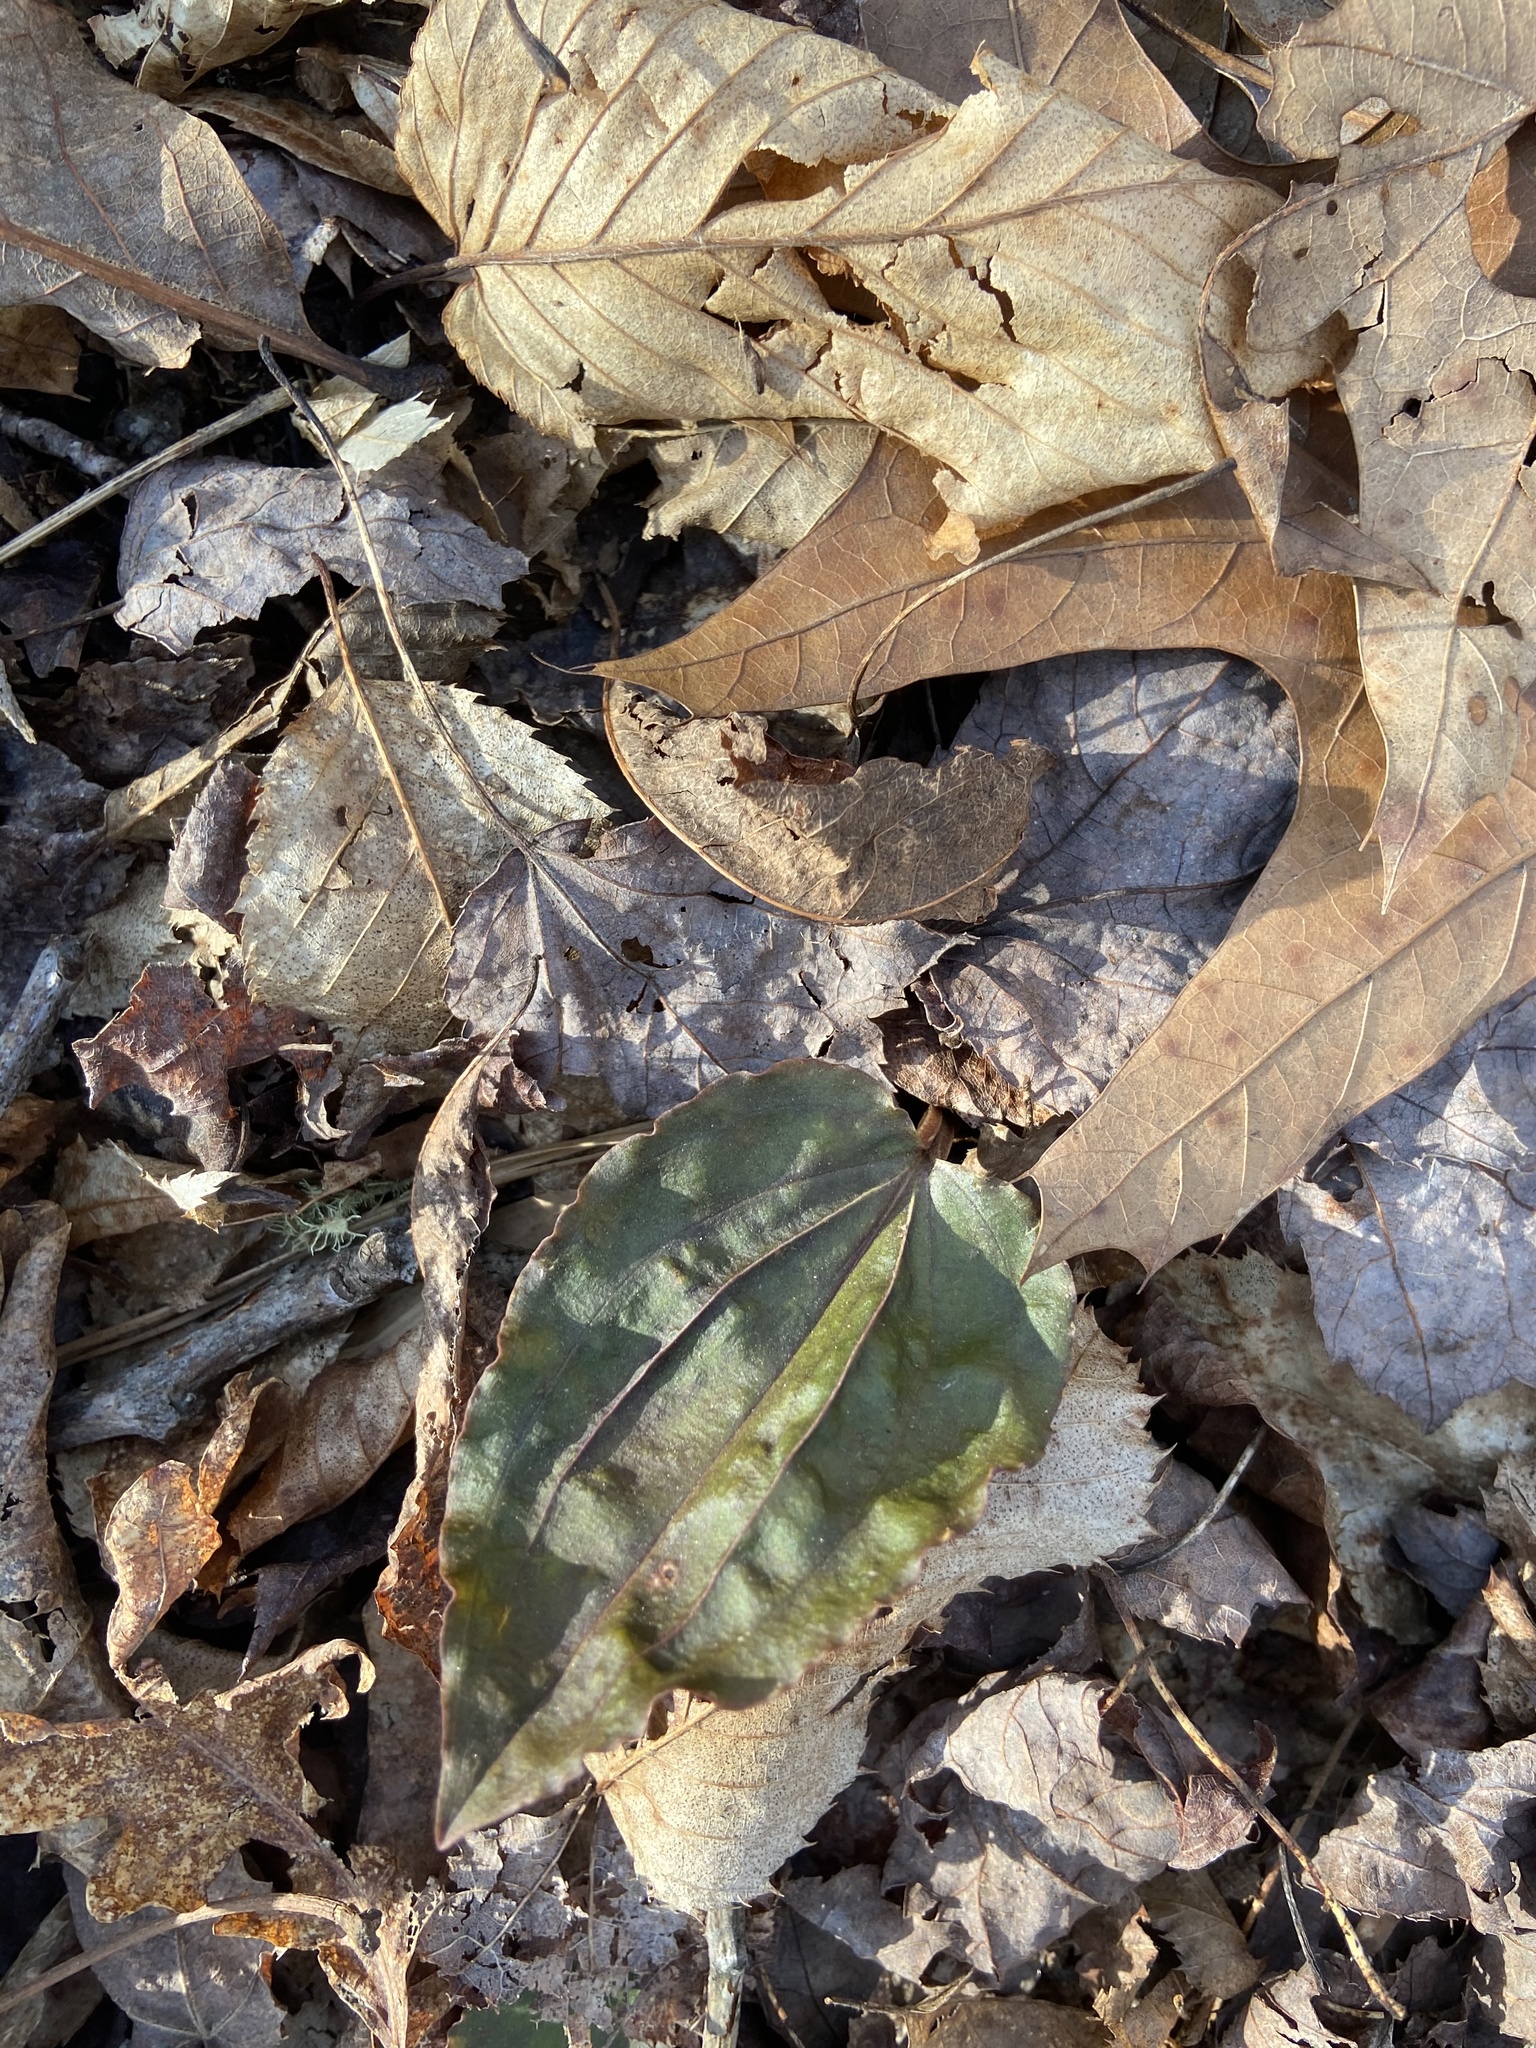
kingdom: Plantae
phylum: Tracheophyta
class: Liliopsida
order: Asparagales
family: Orchidaceae
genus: Tipularia
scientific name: Tipularia discolor
